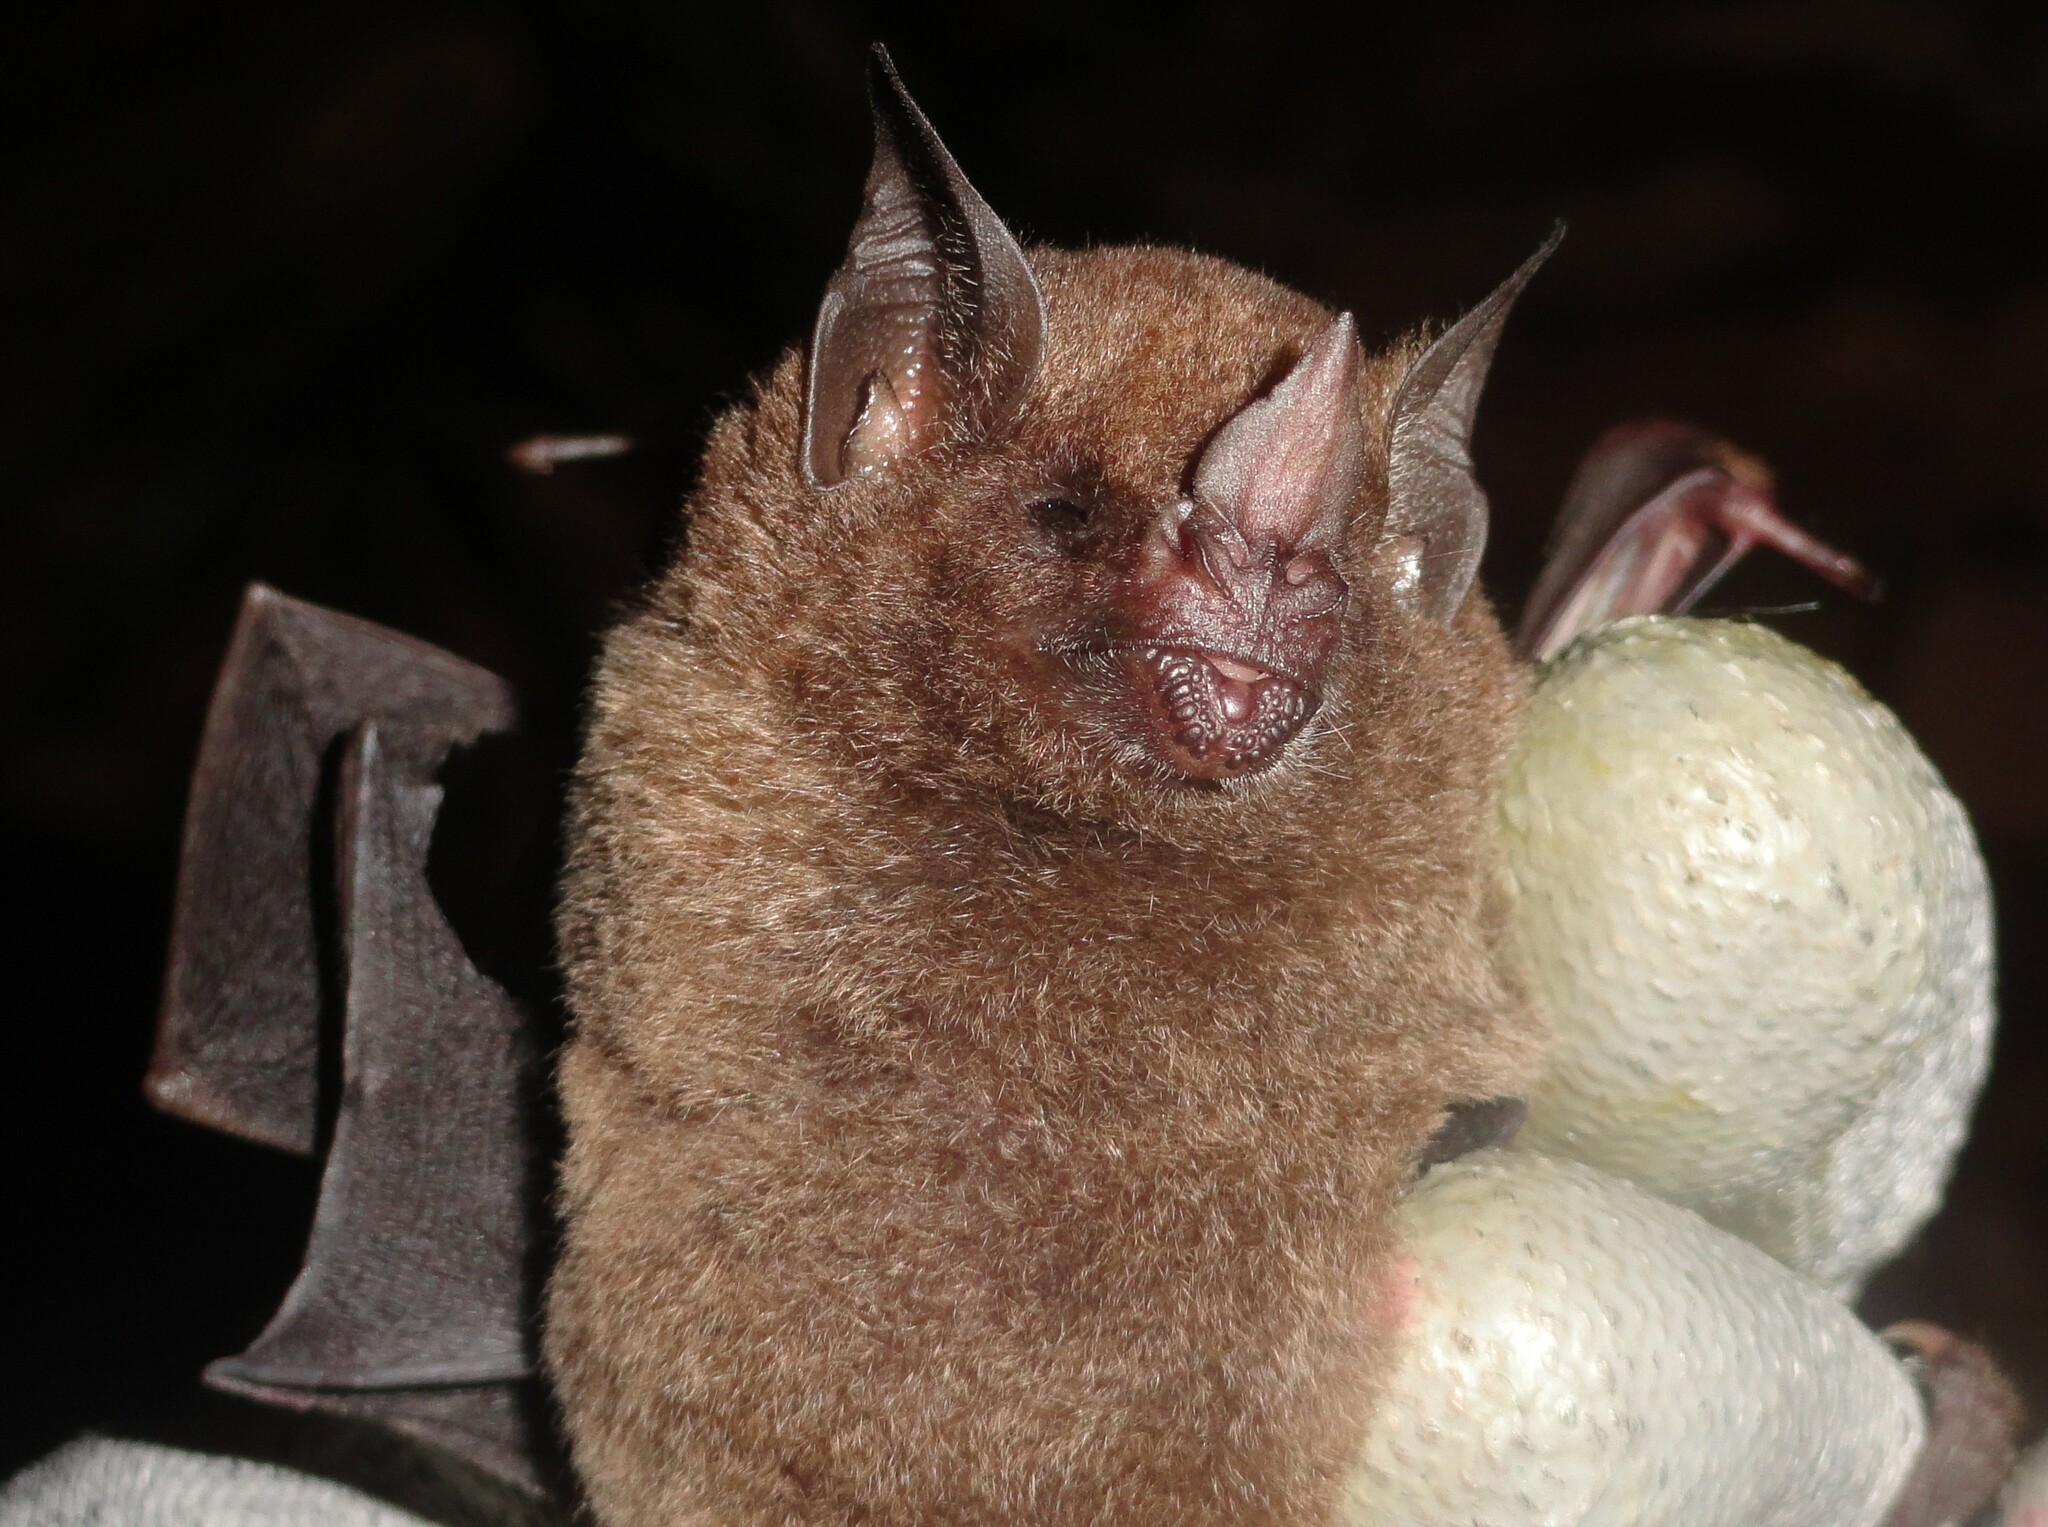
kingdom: Animalia
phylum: Chordata
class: Mammalia
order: Chiroptera
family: Phyllostomidae
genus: Carollia
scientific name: Carollia perspicillata
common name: Seba's short-tailed bat
